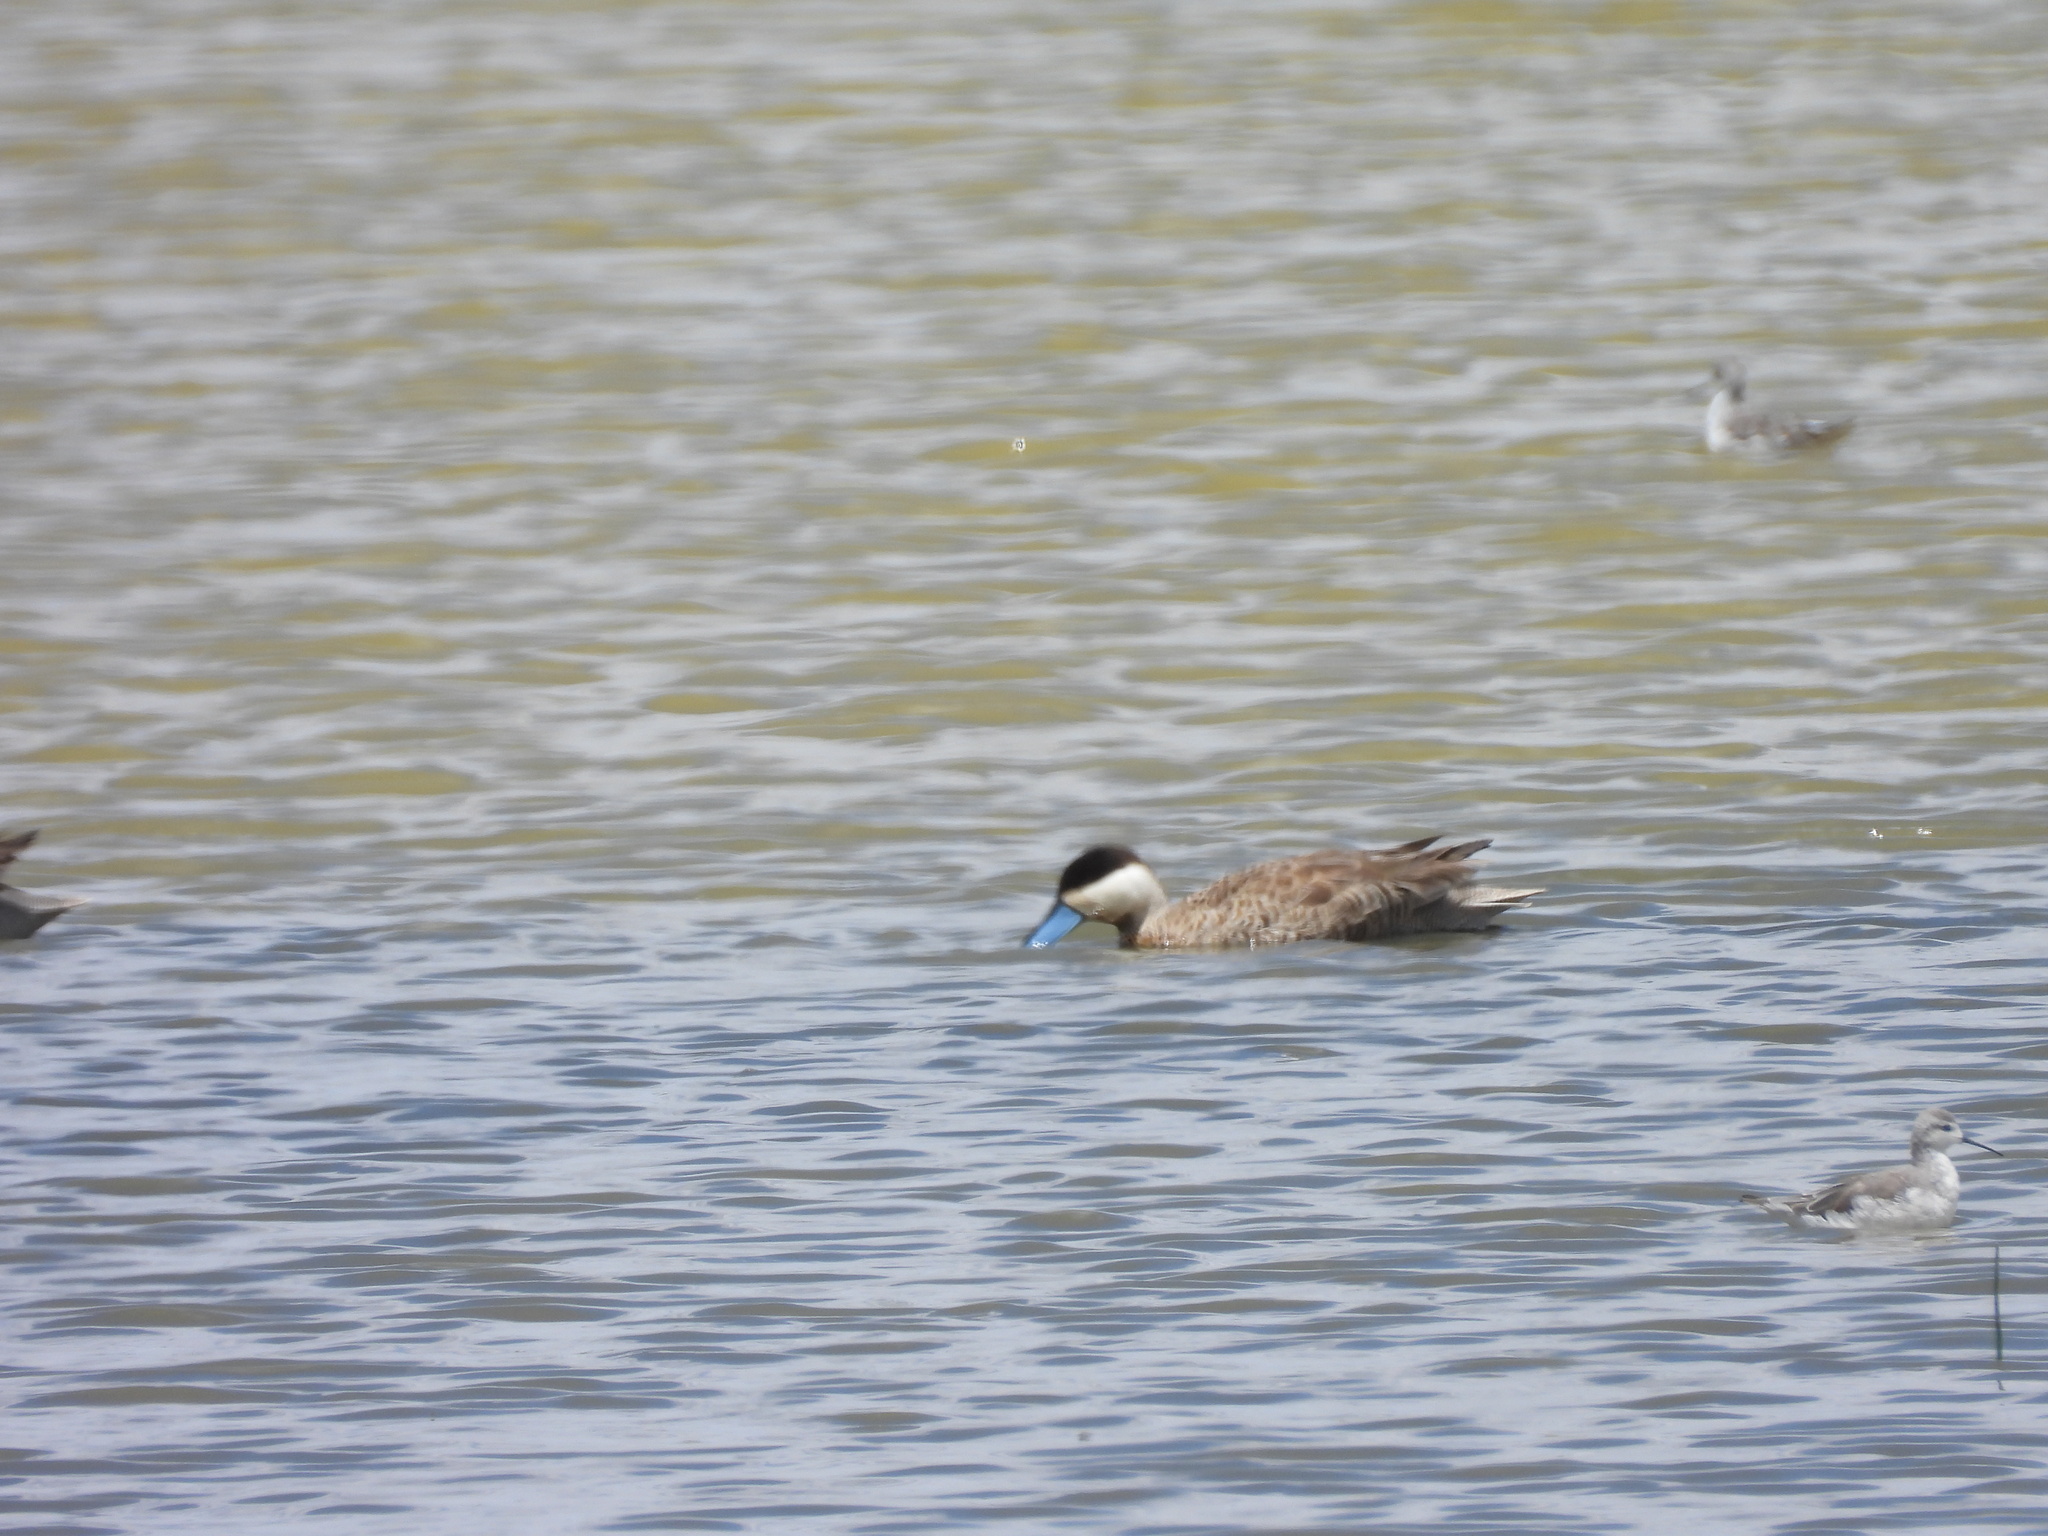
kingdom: Animalia
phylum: Chordata
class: Aves
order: Anseriformes
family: Anatidae
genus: Spatula
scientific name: Spatula puna
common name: Puna teal
